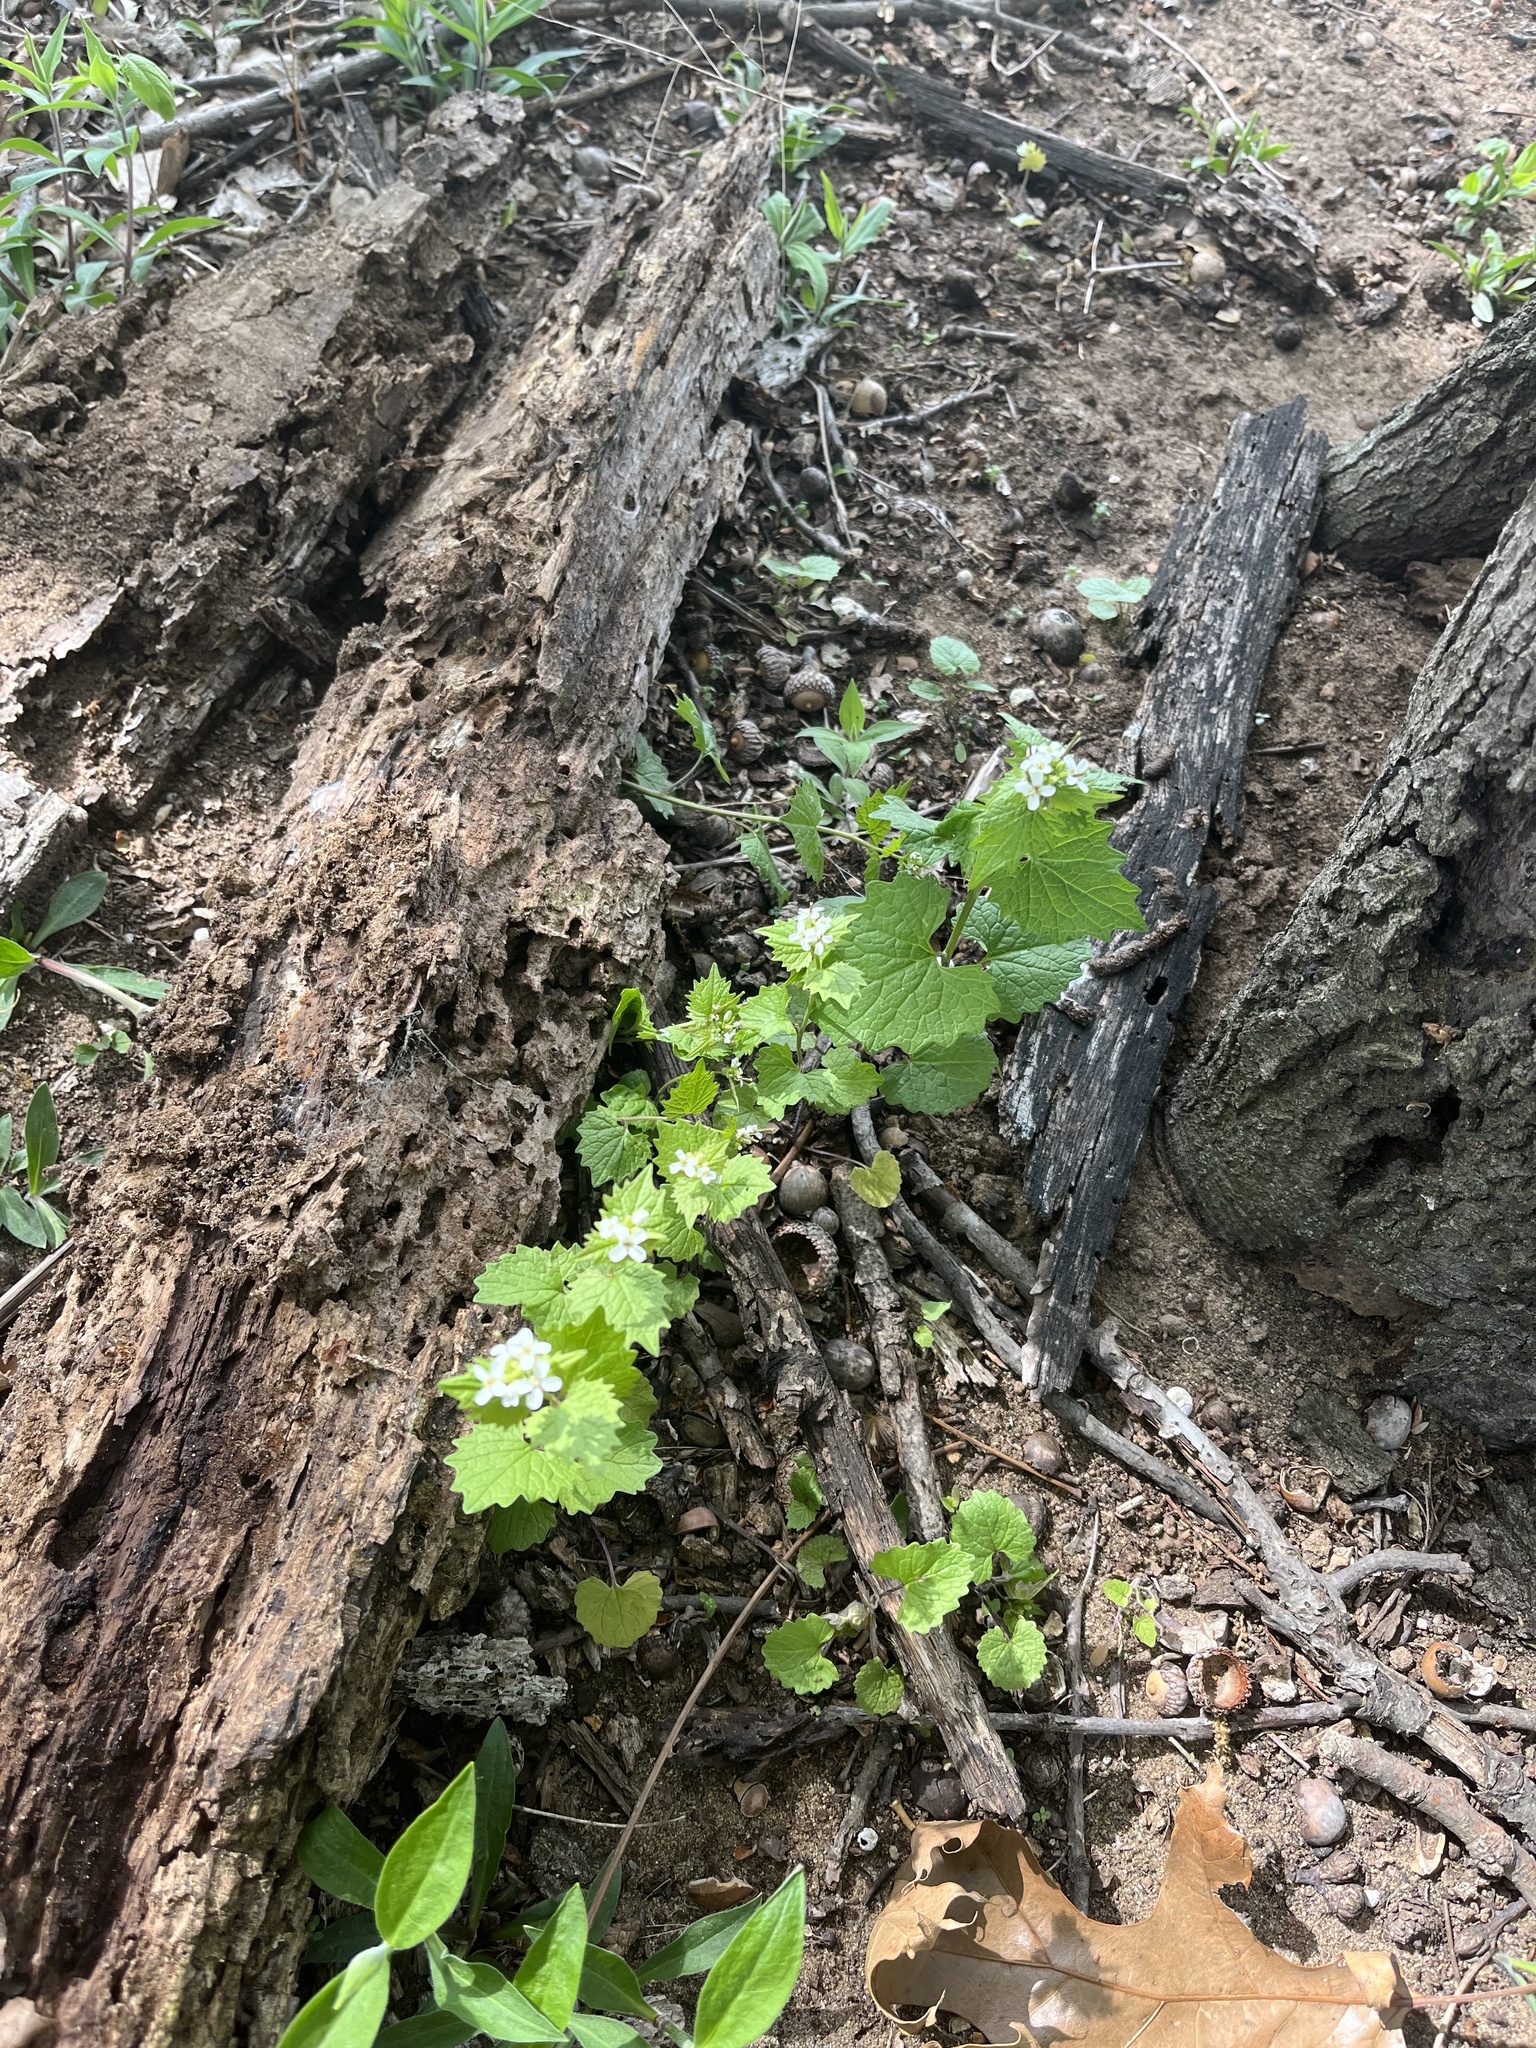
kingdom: Plantae
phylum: Tracheophyta
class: Magnoliopsida
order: Brassicales
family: Brassicaceae
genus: Alliaria
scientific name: Alliaria petiolata
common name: Garlic mustard
